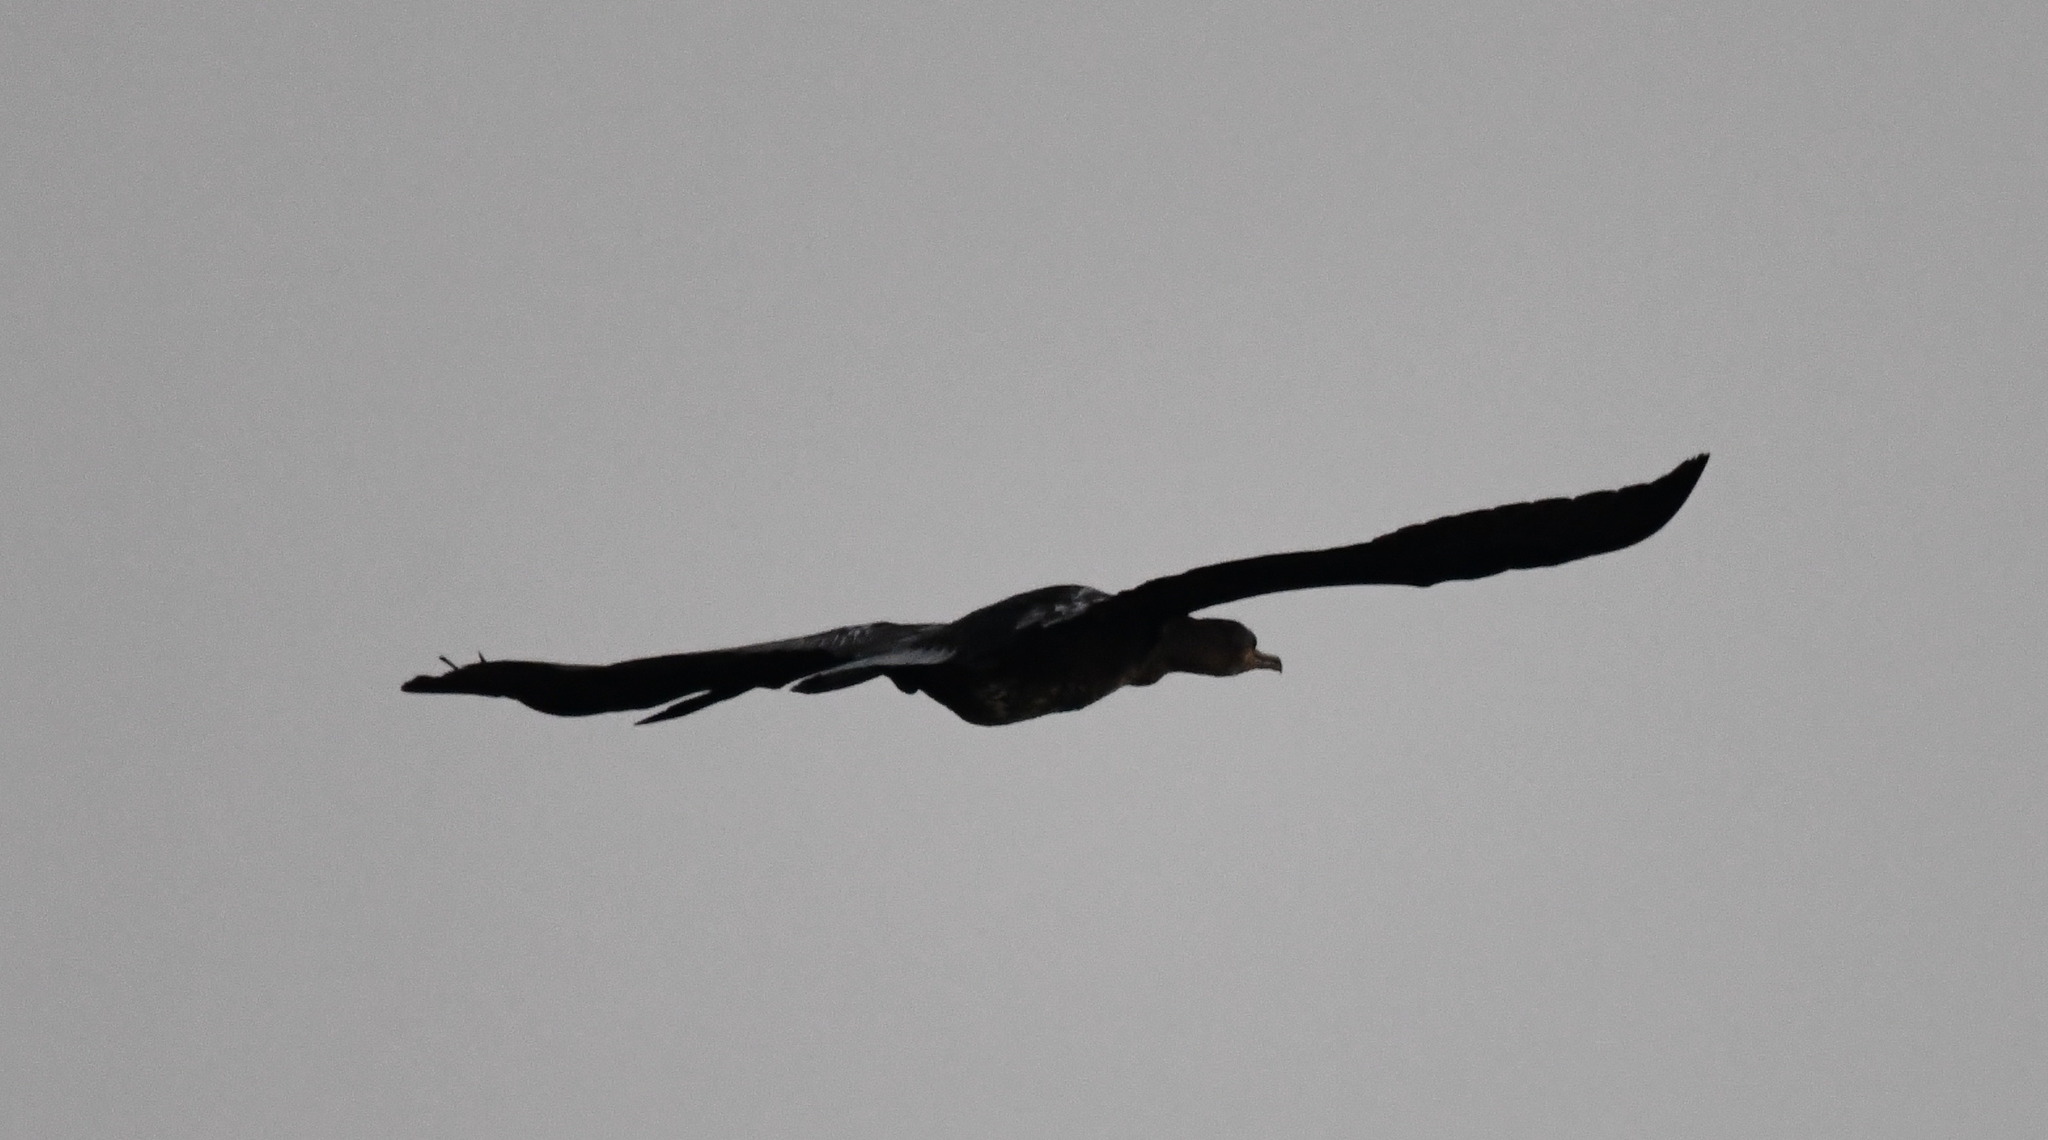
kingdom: Animalia
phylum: Chordata
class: Aves
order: Suliformes
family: Phalacrocoracidae
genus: Phalacrocorax
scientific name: Phalacrocorax carbo
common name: Great cormorant
